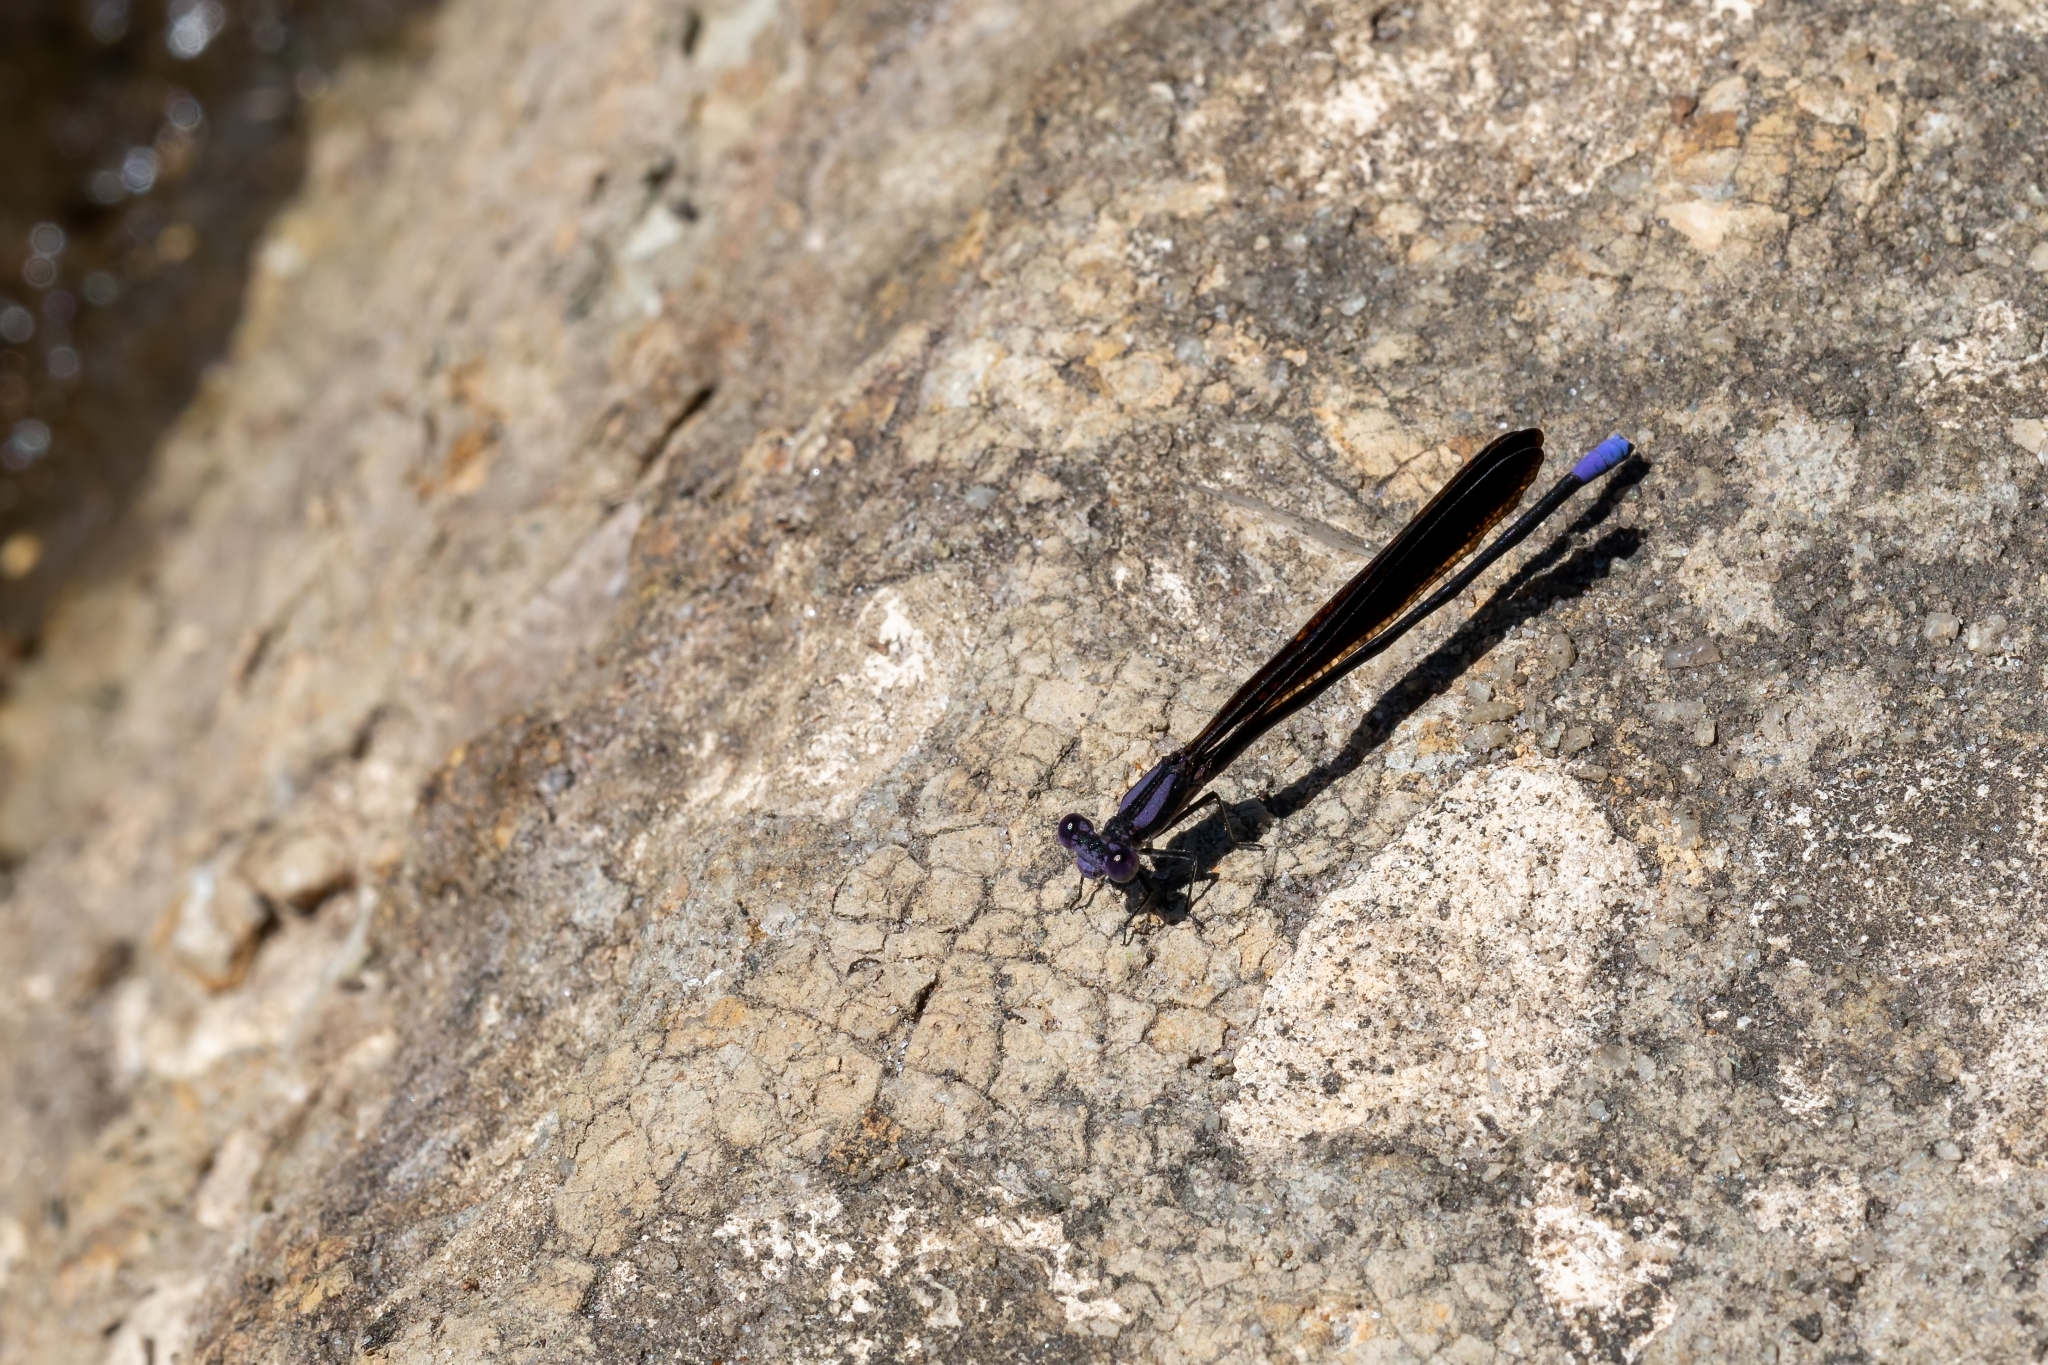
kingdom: Animalia
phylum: Arthropoda
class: Insecta
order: Odonata
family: Coenagrionidae
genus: Argia
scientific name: Argia fumipennis
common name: Variable dancer
